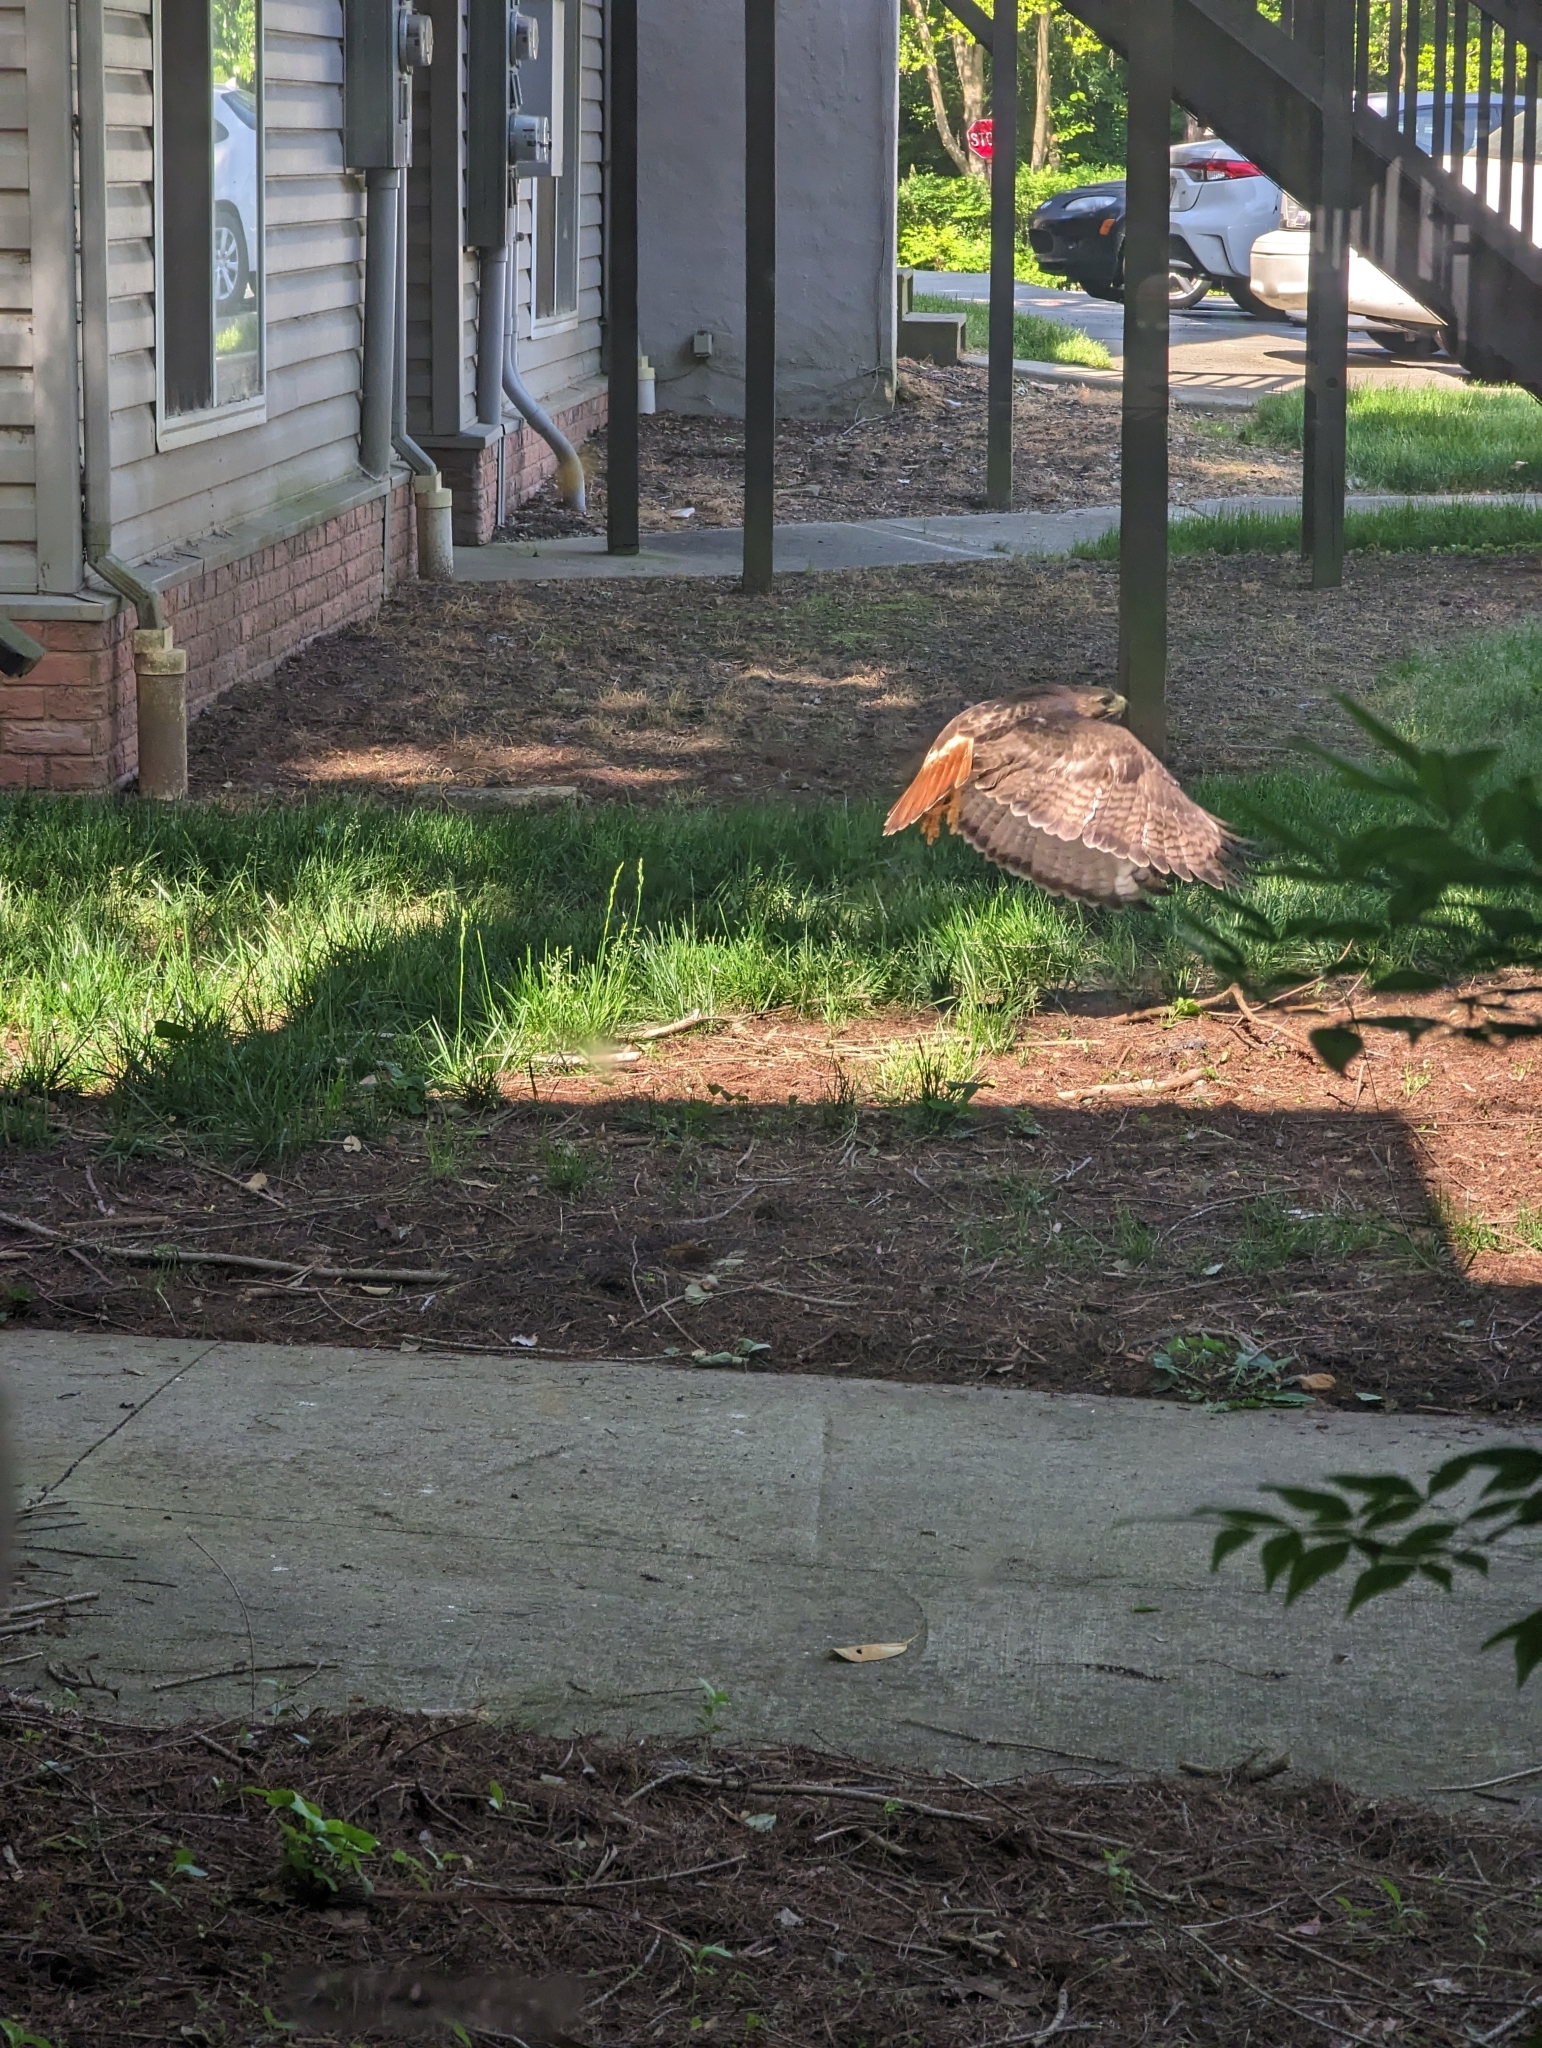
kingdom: Animalia
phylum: Chordata
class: Aves
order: Accipitriformes
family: Accipitridae
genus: Buteo
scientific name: Buteo jamaicensis
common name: Red-tailed hawk
